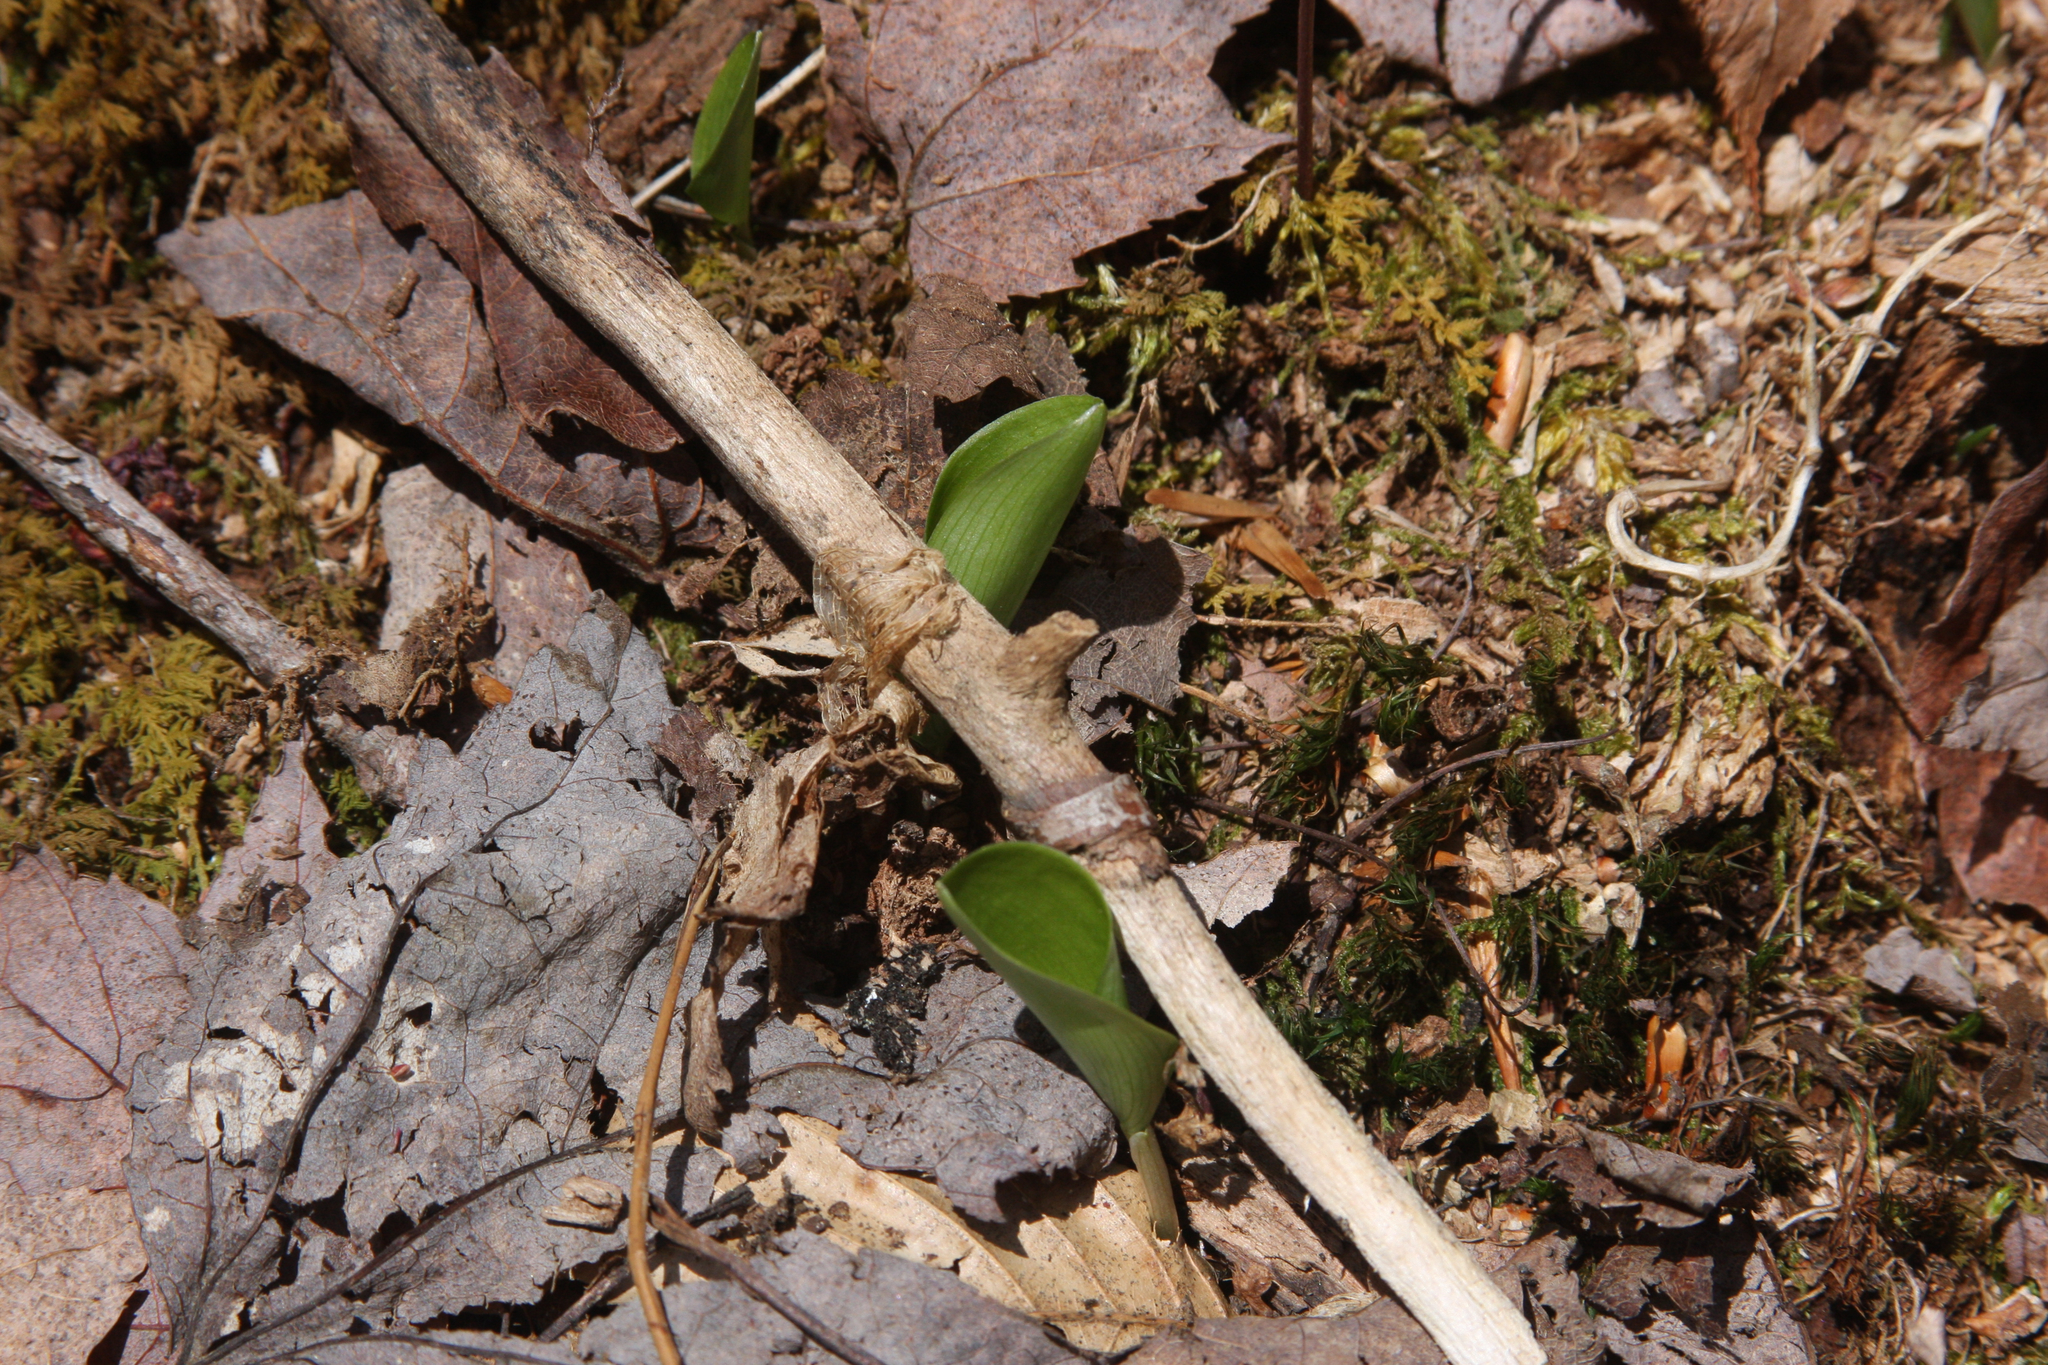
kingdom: Plantae
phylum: Tracheophyta
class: Liliopsida
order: Asparagales
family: Asparagaceae
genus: Maianthemum
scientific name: Maianthemum canadense
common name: False lily-of-the-valley
